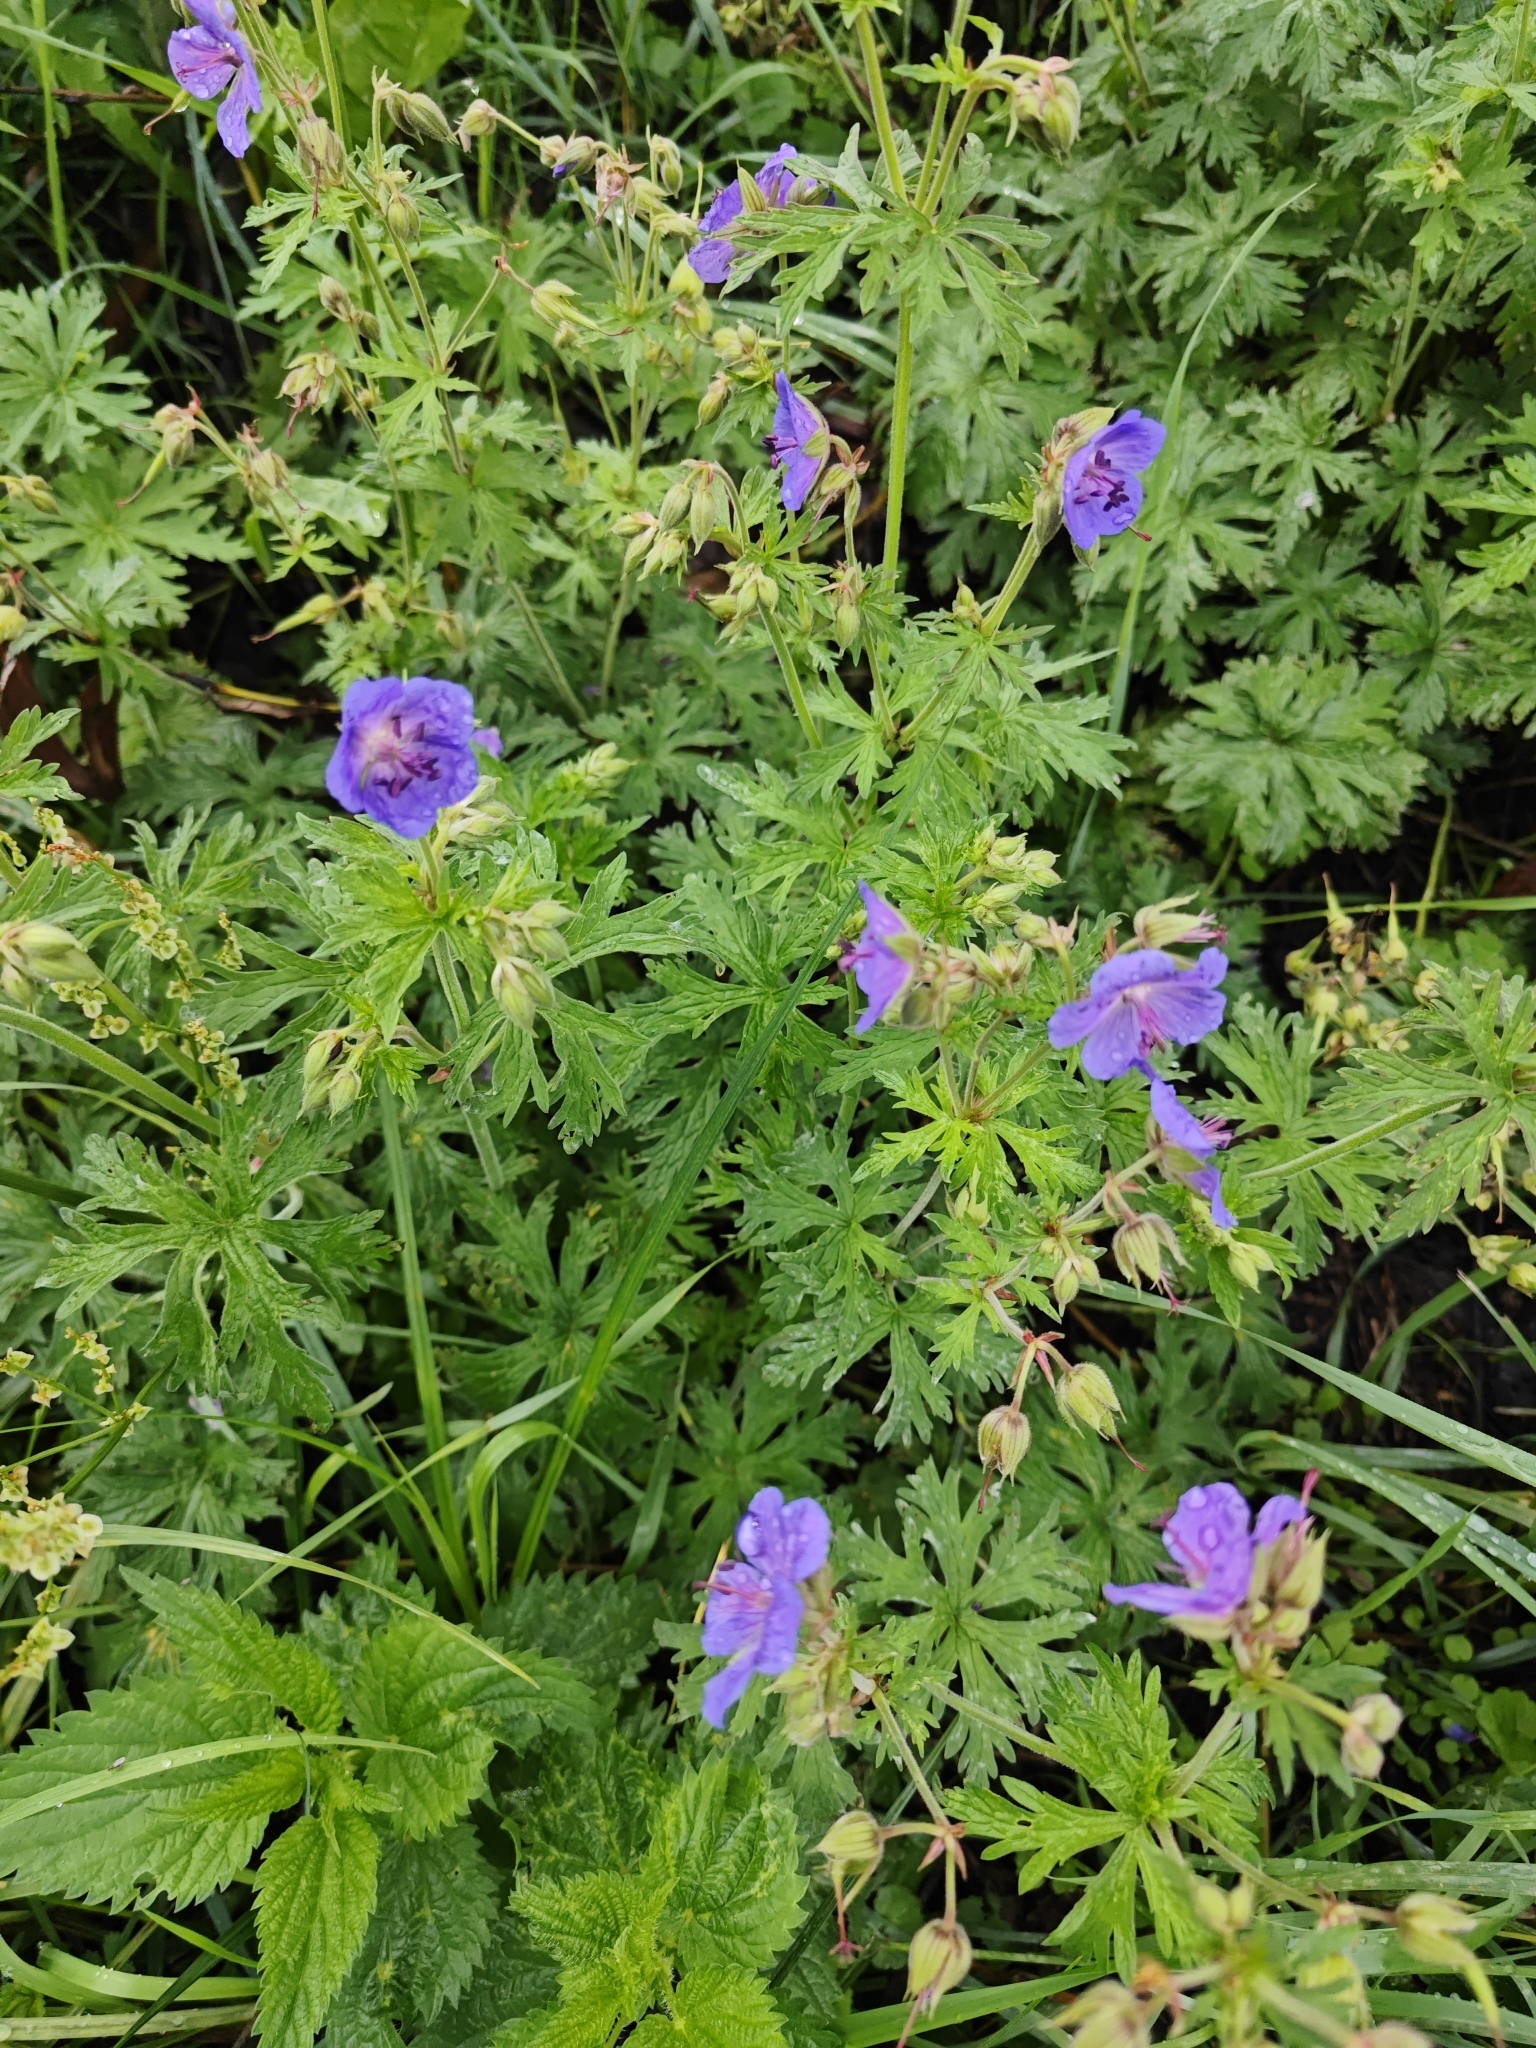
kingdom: Plantae
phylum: Tracheophyta
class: Magnoliopsida
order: Geraniales
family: Geraniaceae
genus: Geranium
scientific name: Geranium pratense
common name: Meadow crane's-bill
